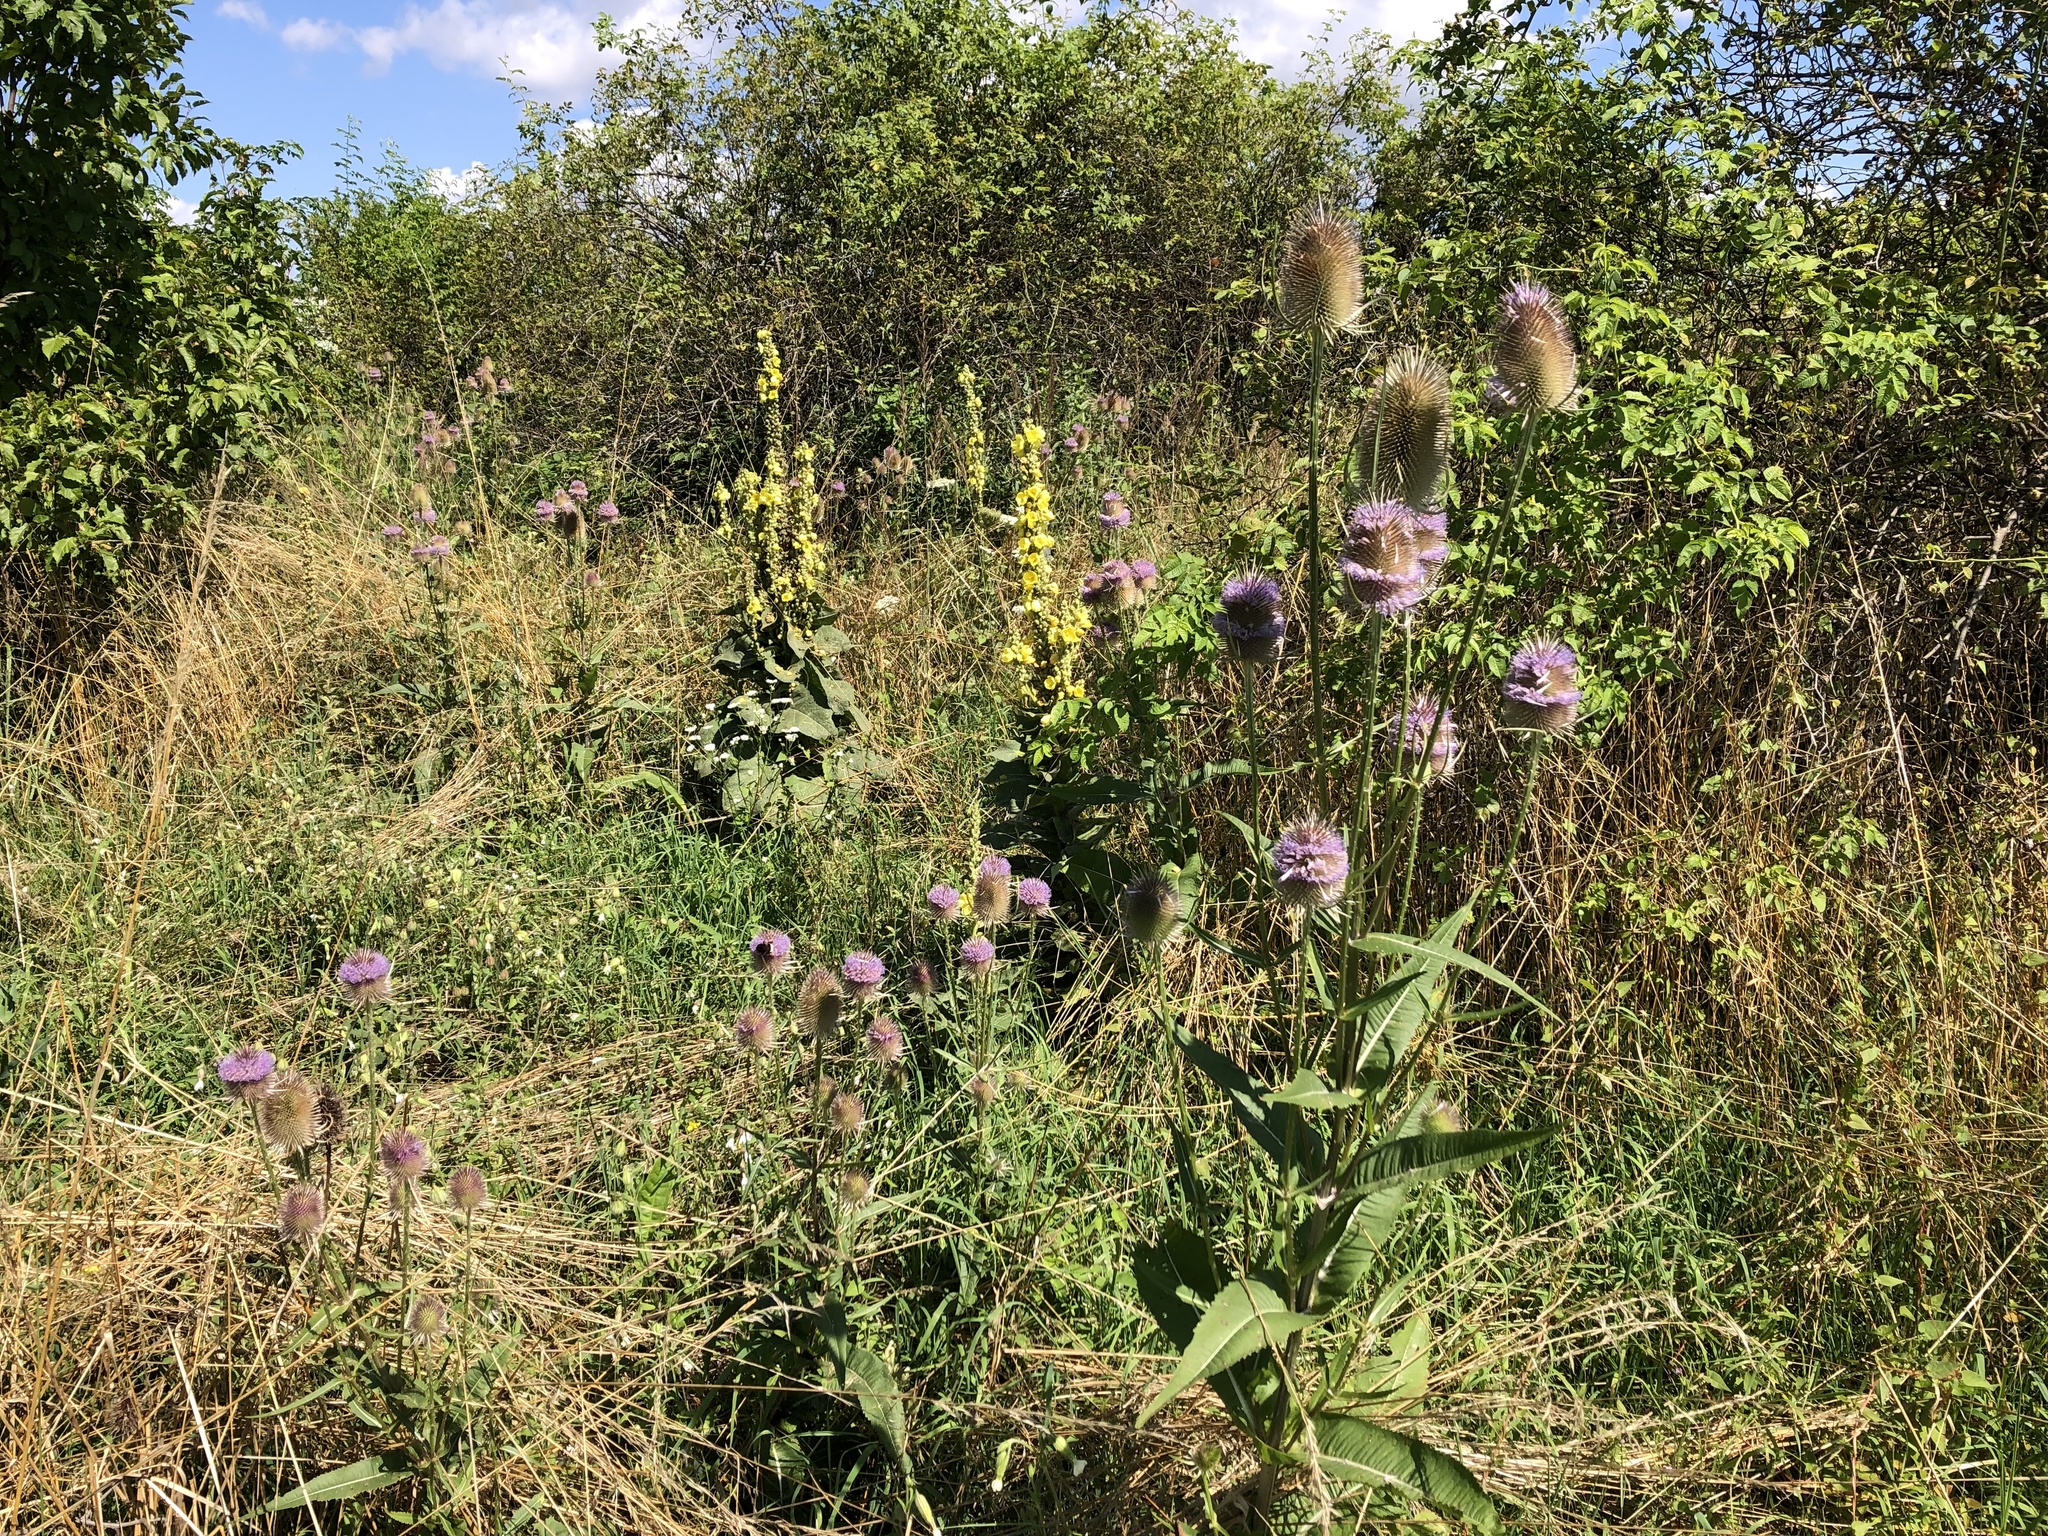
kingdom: Plantae
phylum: Tracheophyta
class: Magnoliopsida
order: Dipsacales
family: Caprifoliaceae
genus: Dipsacus
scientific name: Dipsacus fullonum
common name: Teasel
